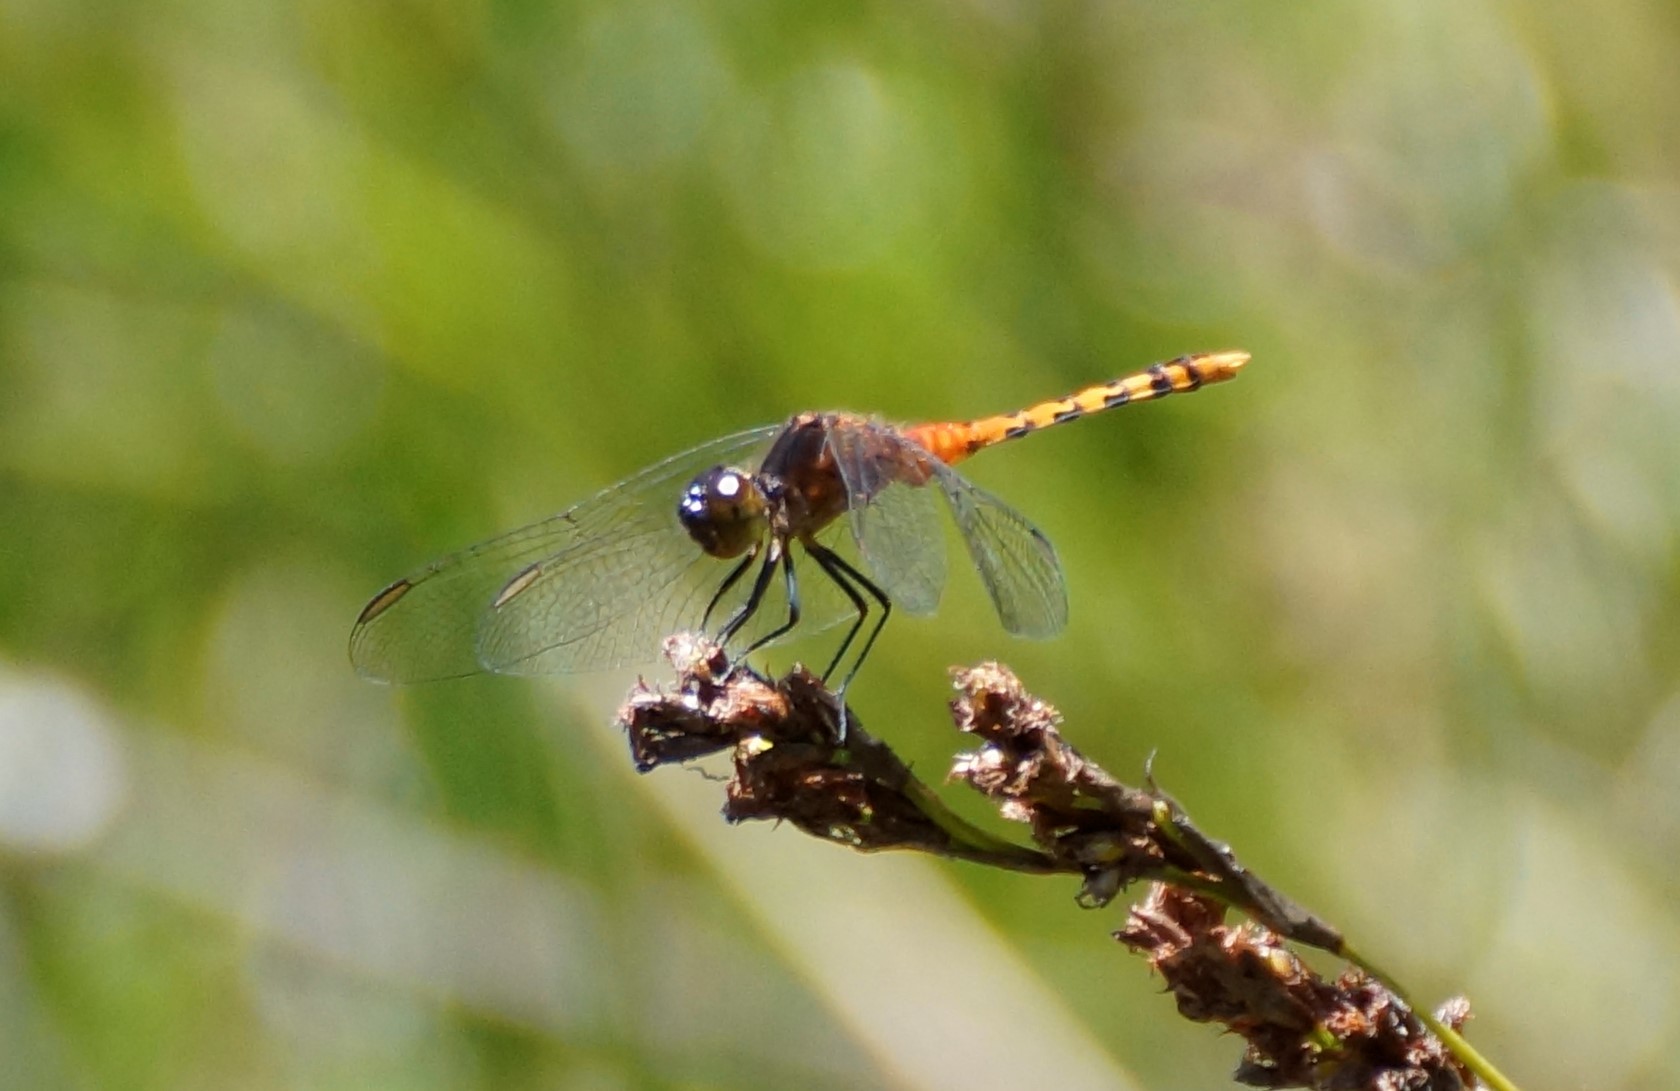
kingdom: Animalia
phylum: Arthropoda
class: Insecta
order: Odonata
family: Libellulidae
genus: Diplacodes
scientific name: Diplacodes melanopsis
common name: Black-faced percher
